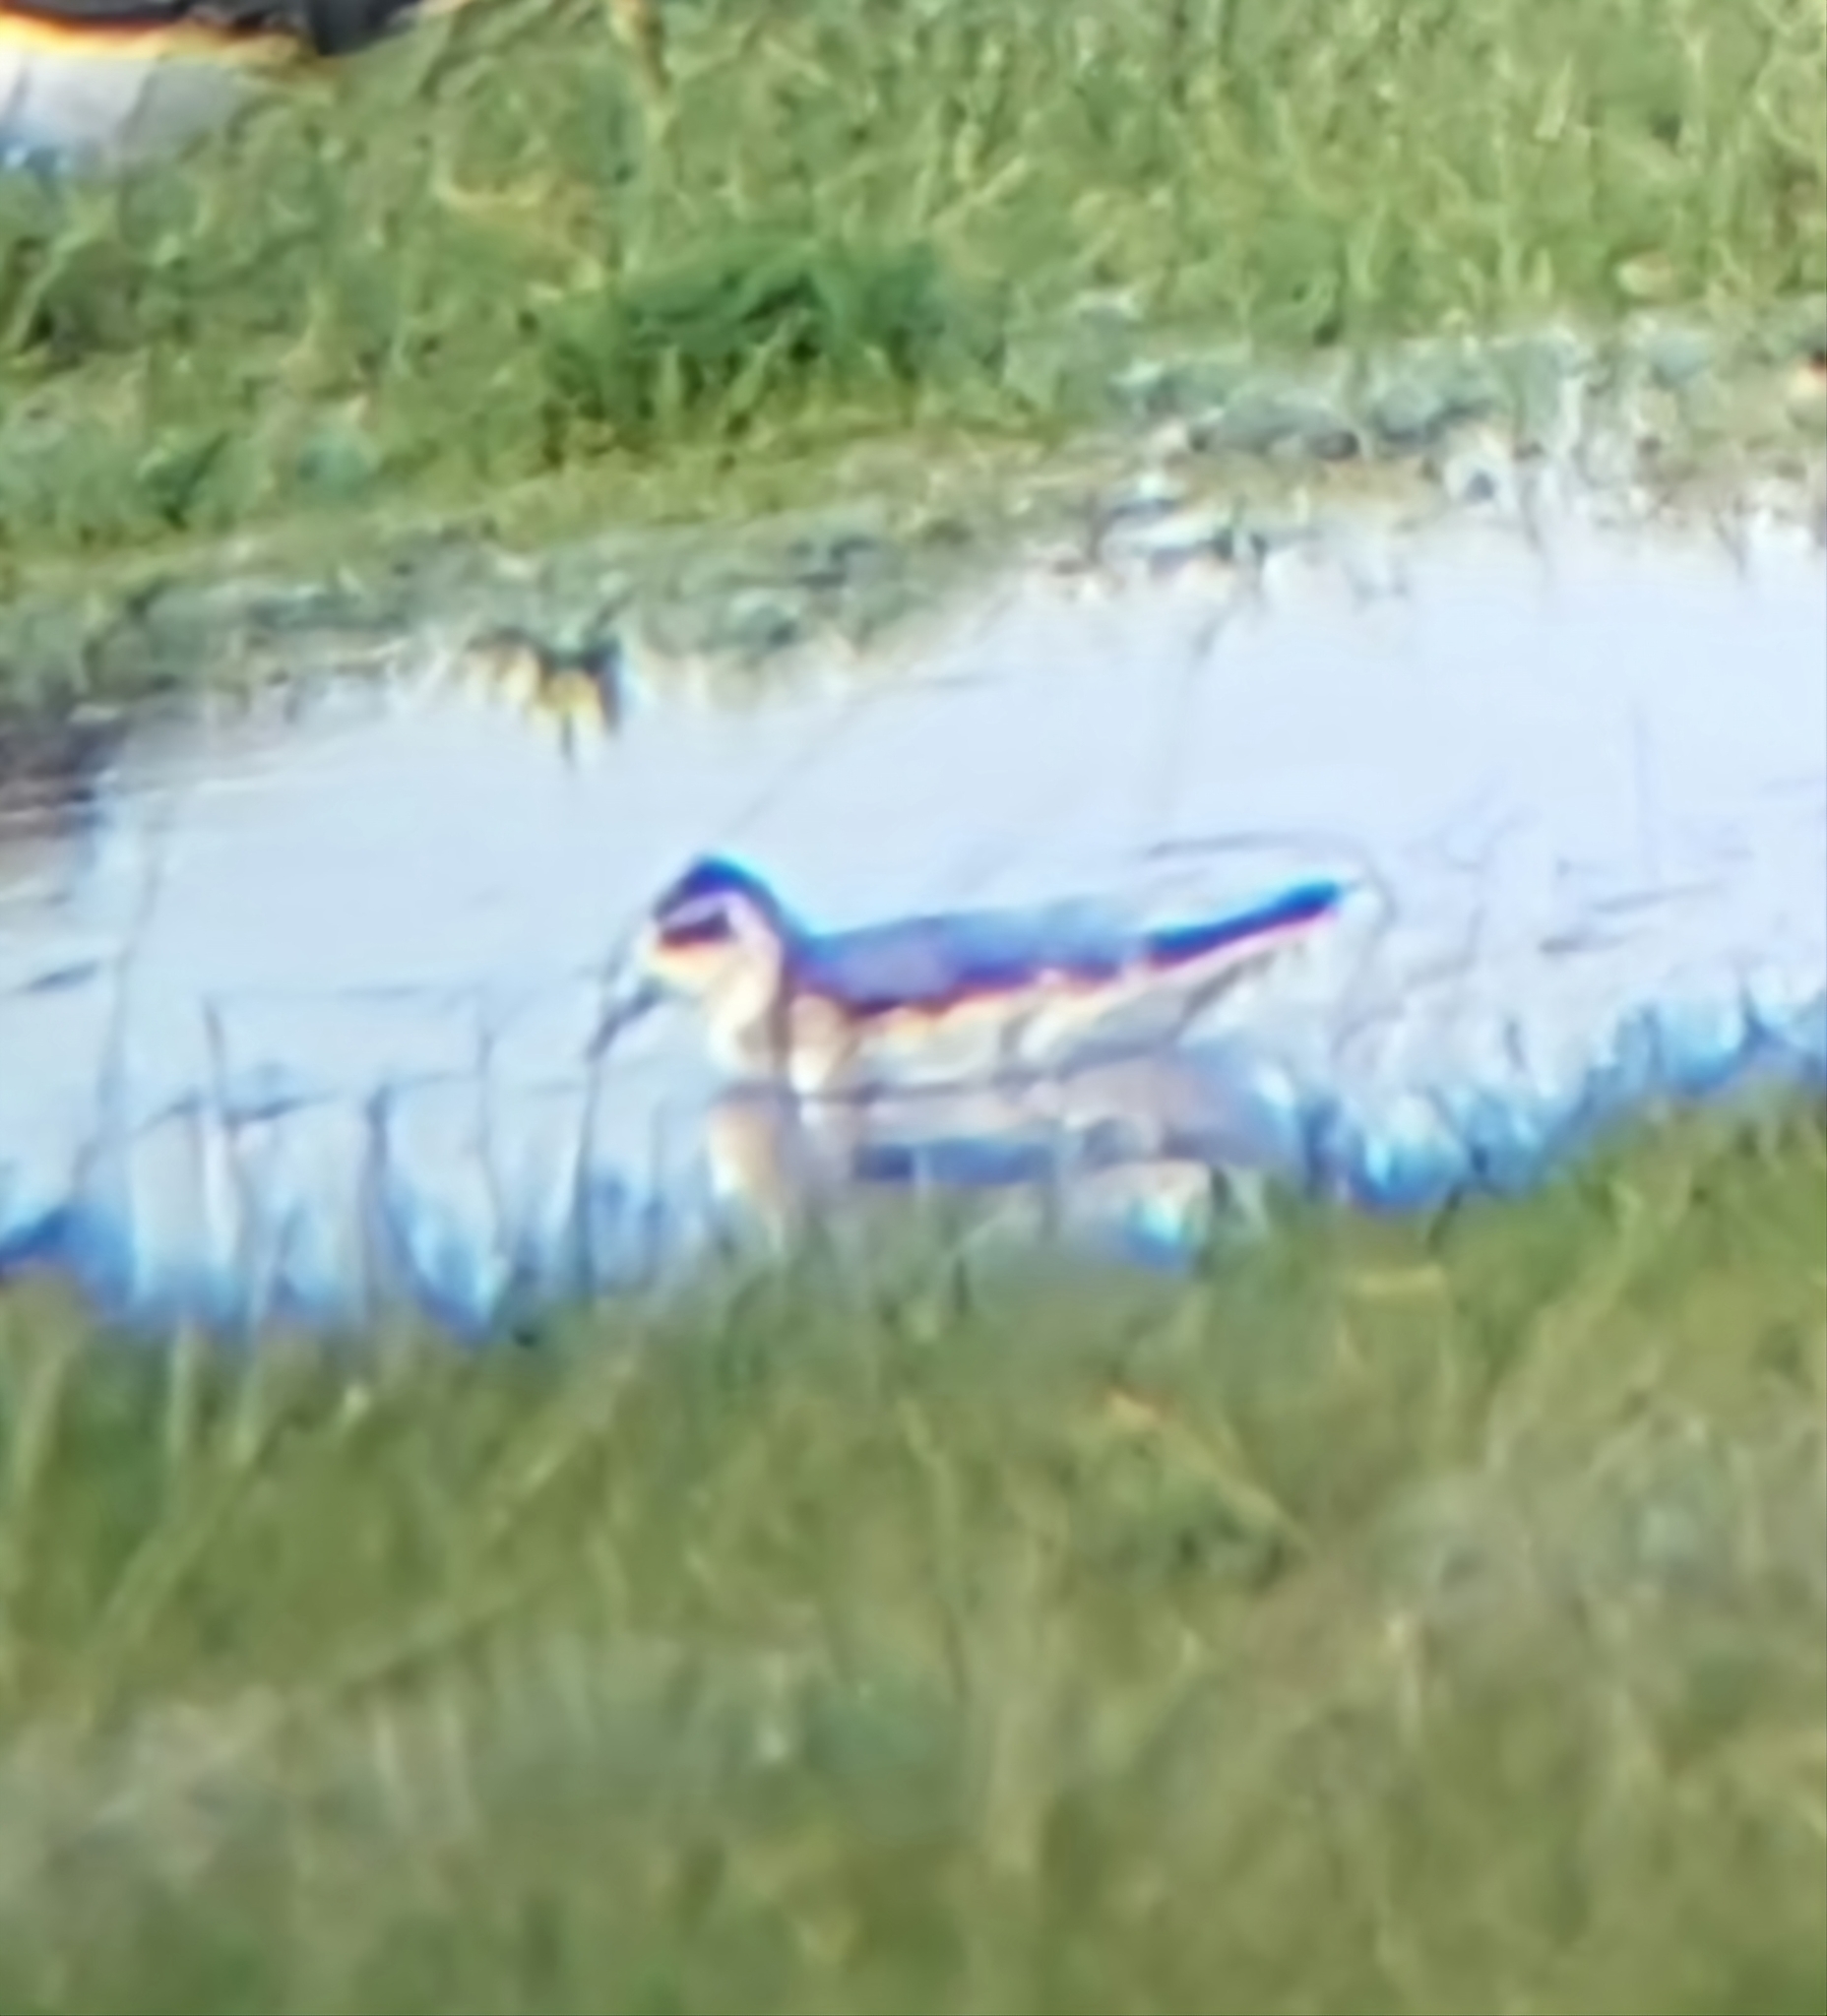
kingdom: Animalia
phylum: Chordata
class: Aves
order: Charadriiformes
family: Scolopacidae
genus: Phalaropus
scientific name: Phalaropus fulicarius
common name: Red phalarope
